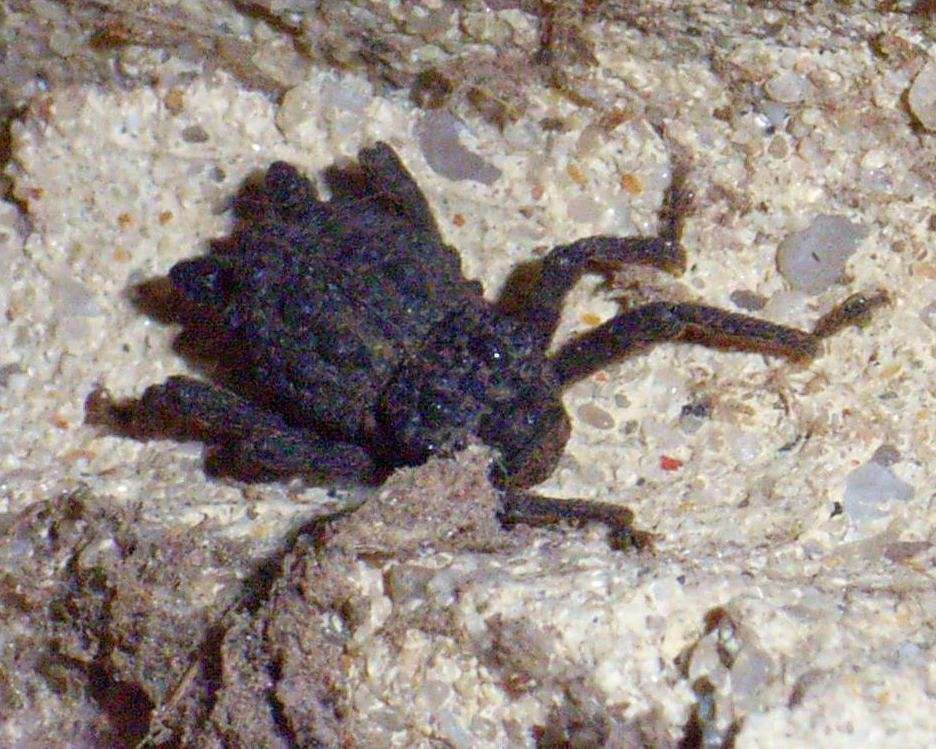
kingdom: Animalia
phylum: Arthropoda
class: Insecta
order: Coleoptera
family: Curculionidae
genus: Poropterus
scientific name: Poropterus conifer
